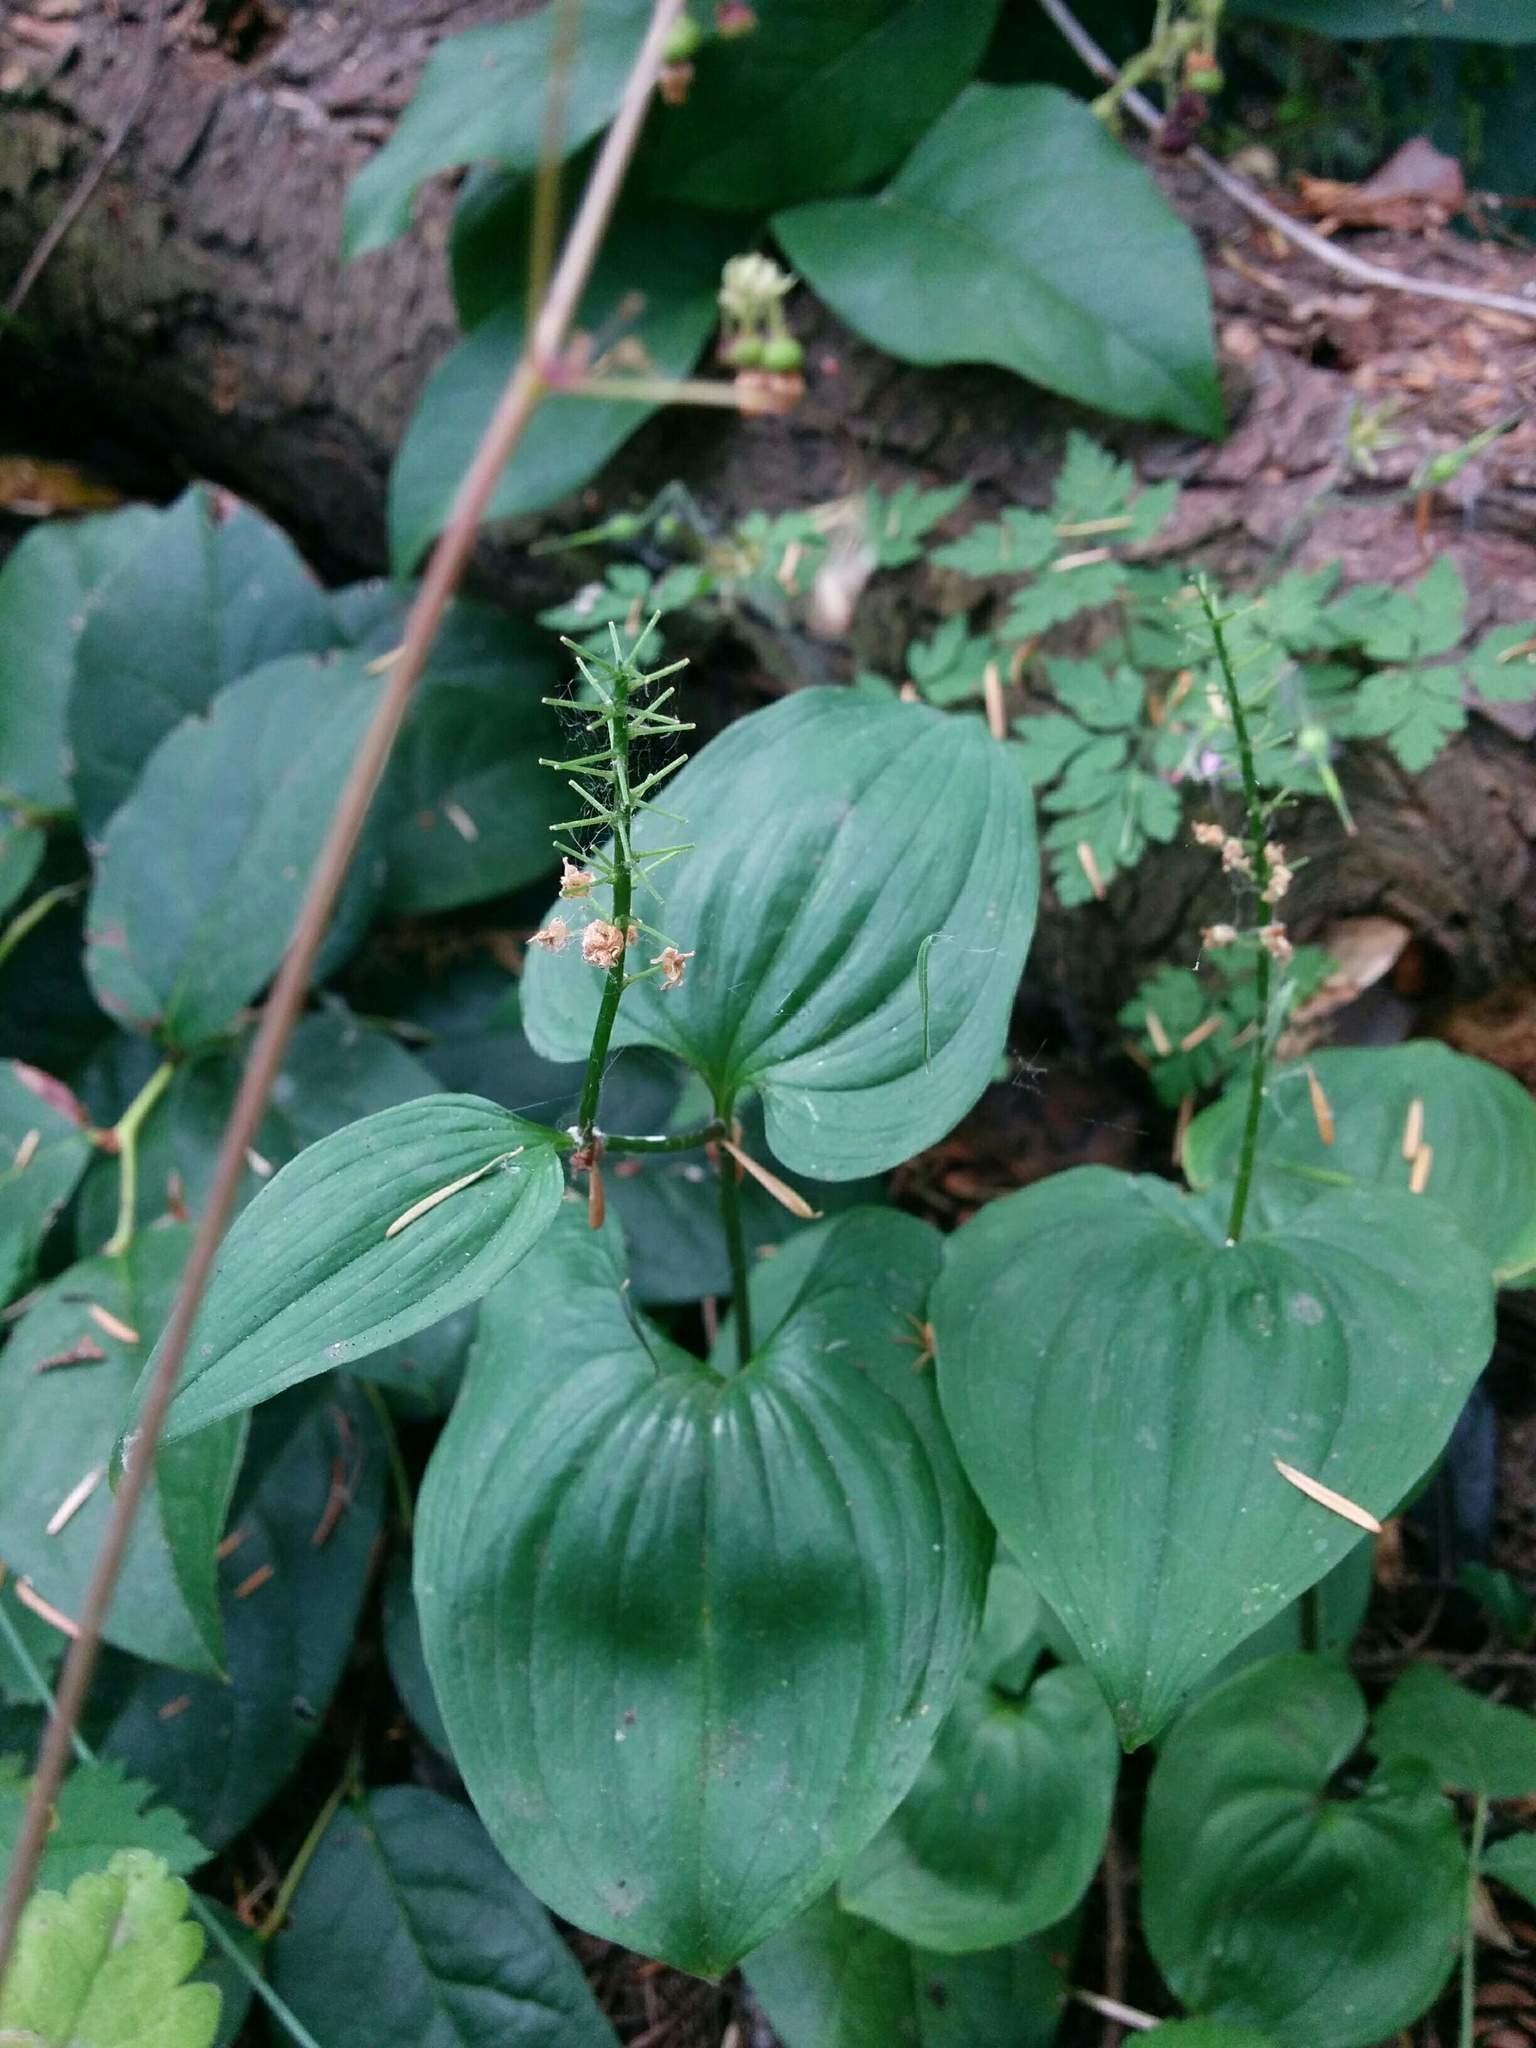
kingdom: Plantae
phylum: Tracheophyta
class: Liliopsida
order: Asparagales
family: Asparagaceae
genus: Maianthemum
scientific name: Maianthemum dilatatum
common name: False lily-of-the-valley
